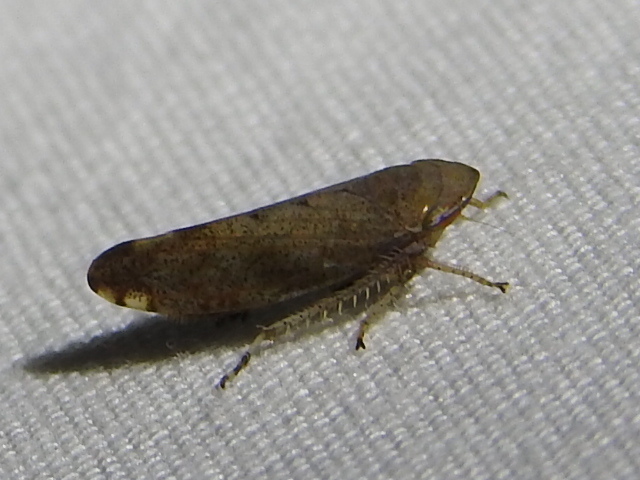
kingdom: Animalia
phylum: Arthropoda
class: Insecta
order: Hemiptera
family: Cicadellidae
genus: Fieberiella
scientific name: Fieberiella florii
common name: Flor’s leafhopper
